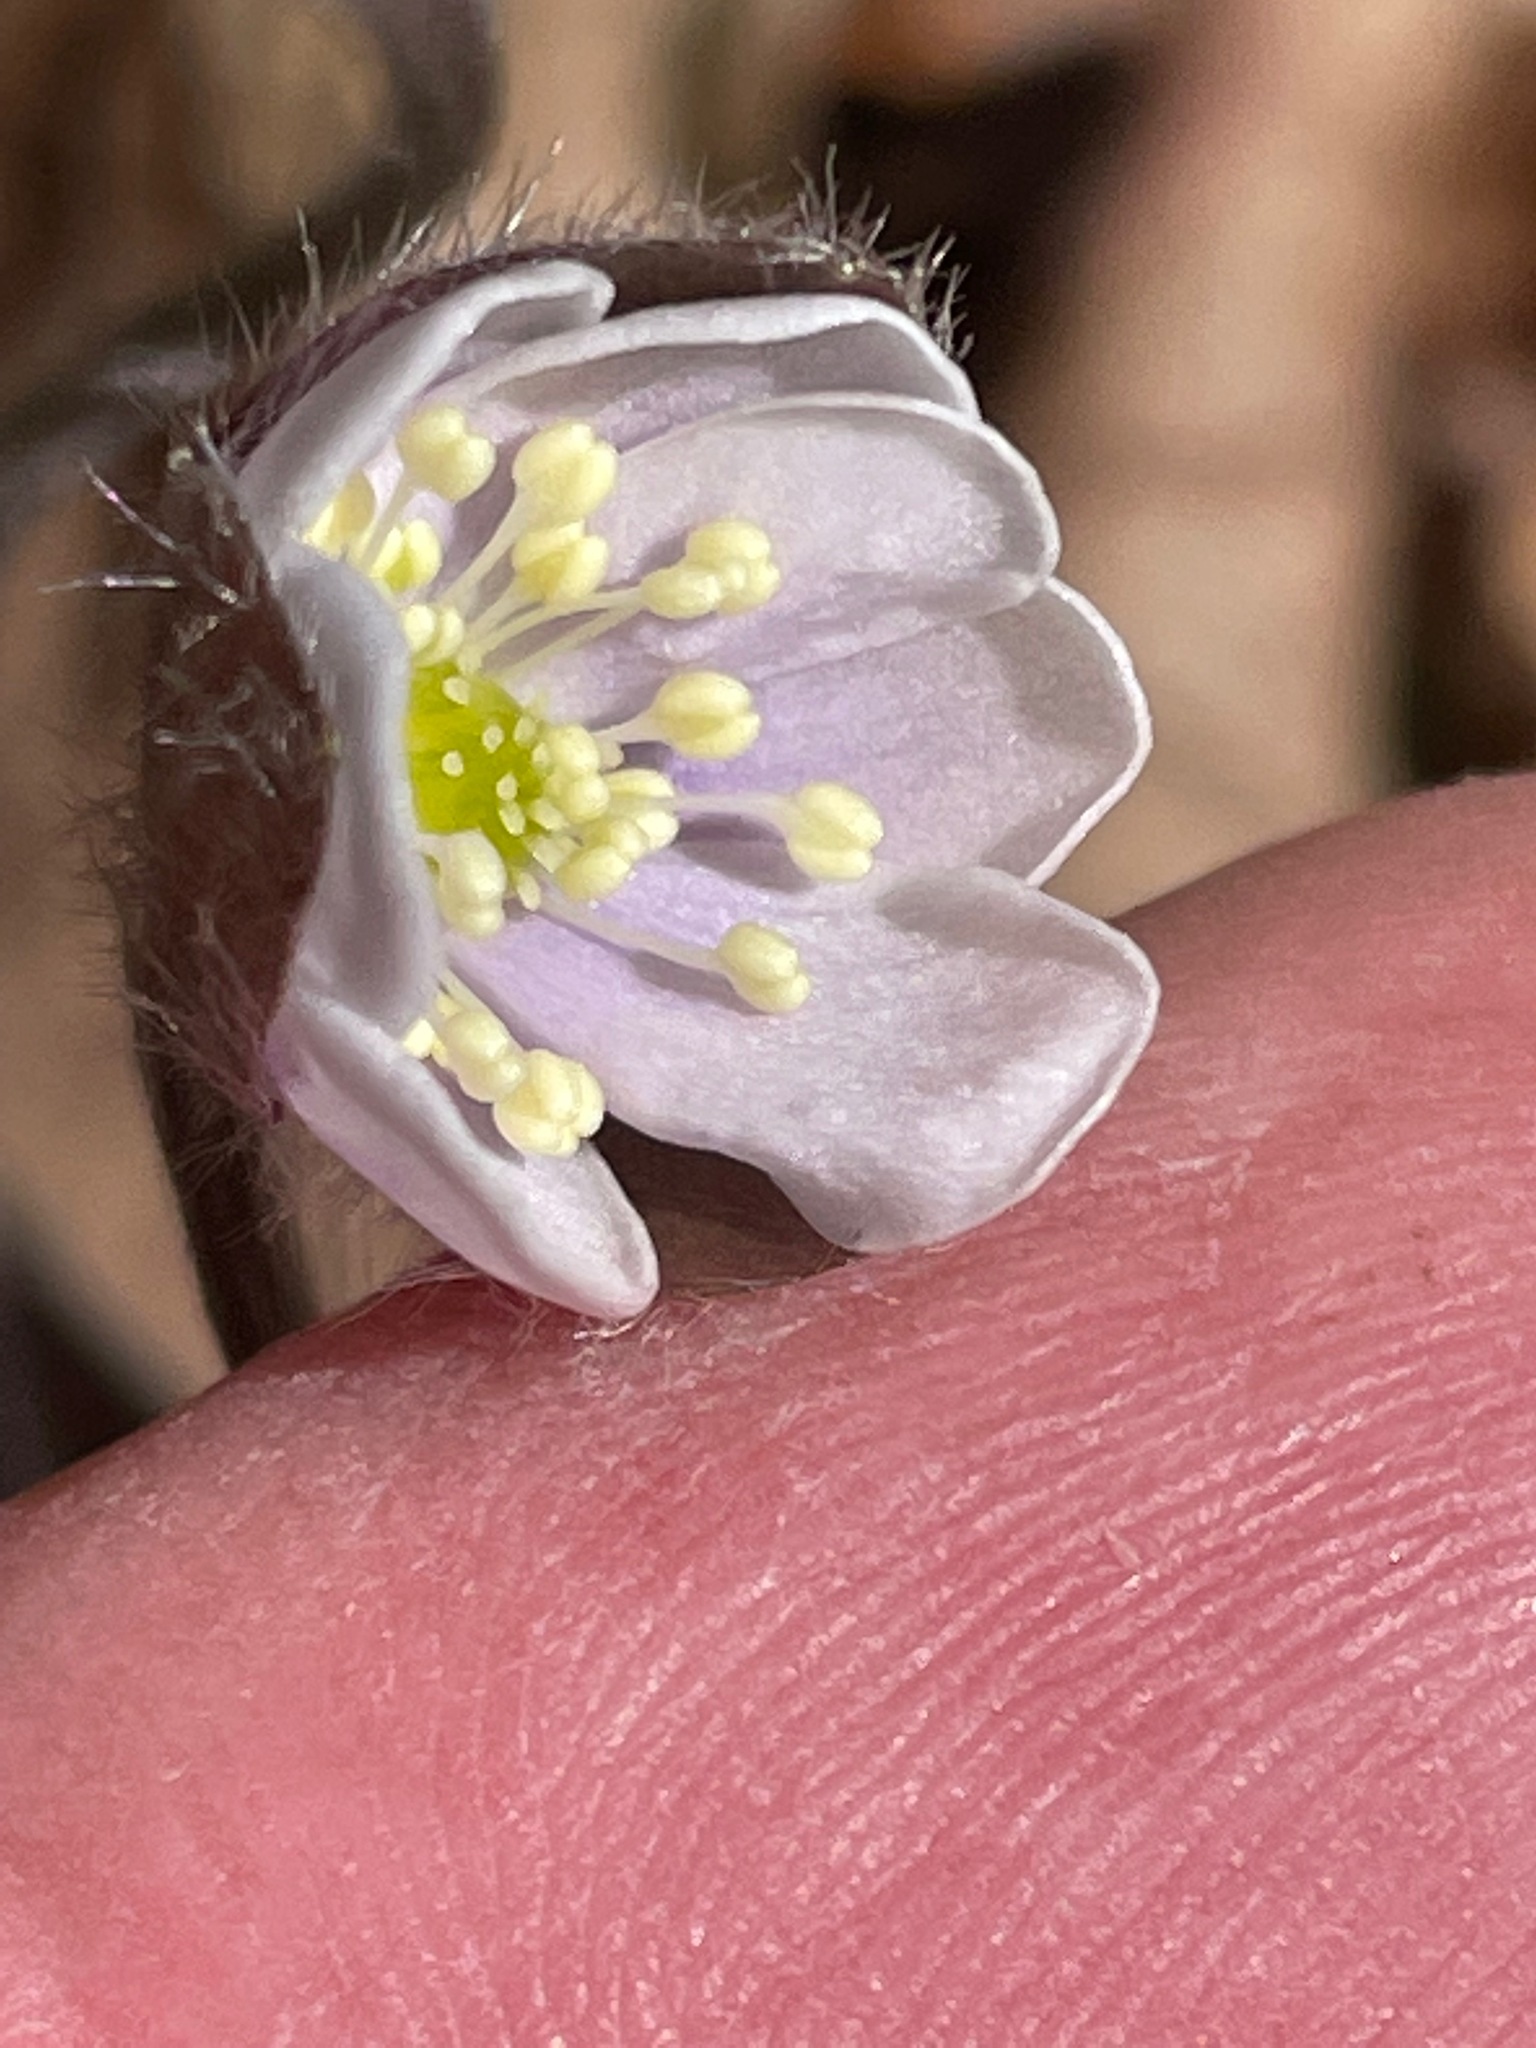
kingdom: Plantae
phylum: Tracheophyta
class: Magnoliopsida
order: Ranunculales
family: Ranunculaceae
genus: Hepatica
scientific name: Hepatica americana
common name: American hepatica
